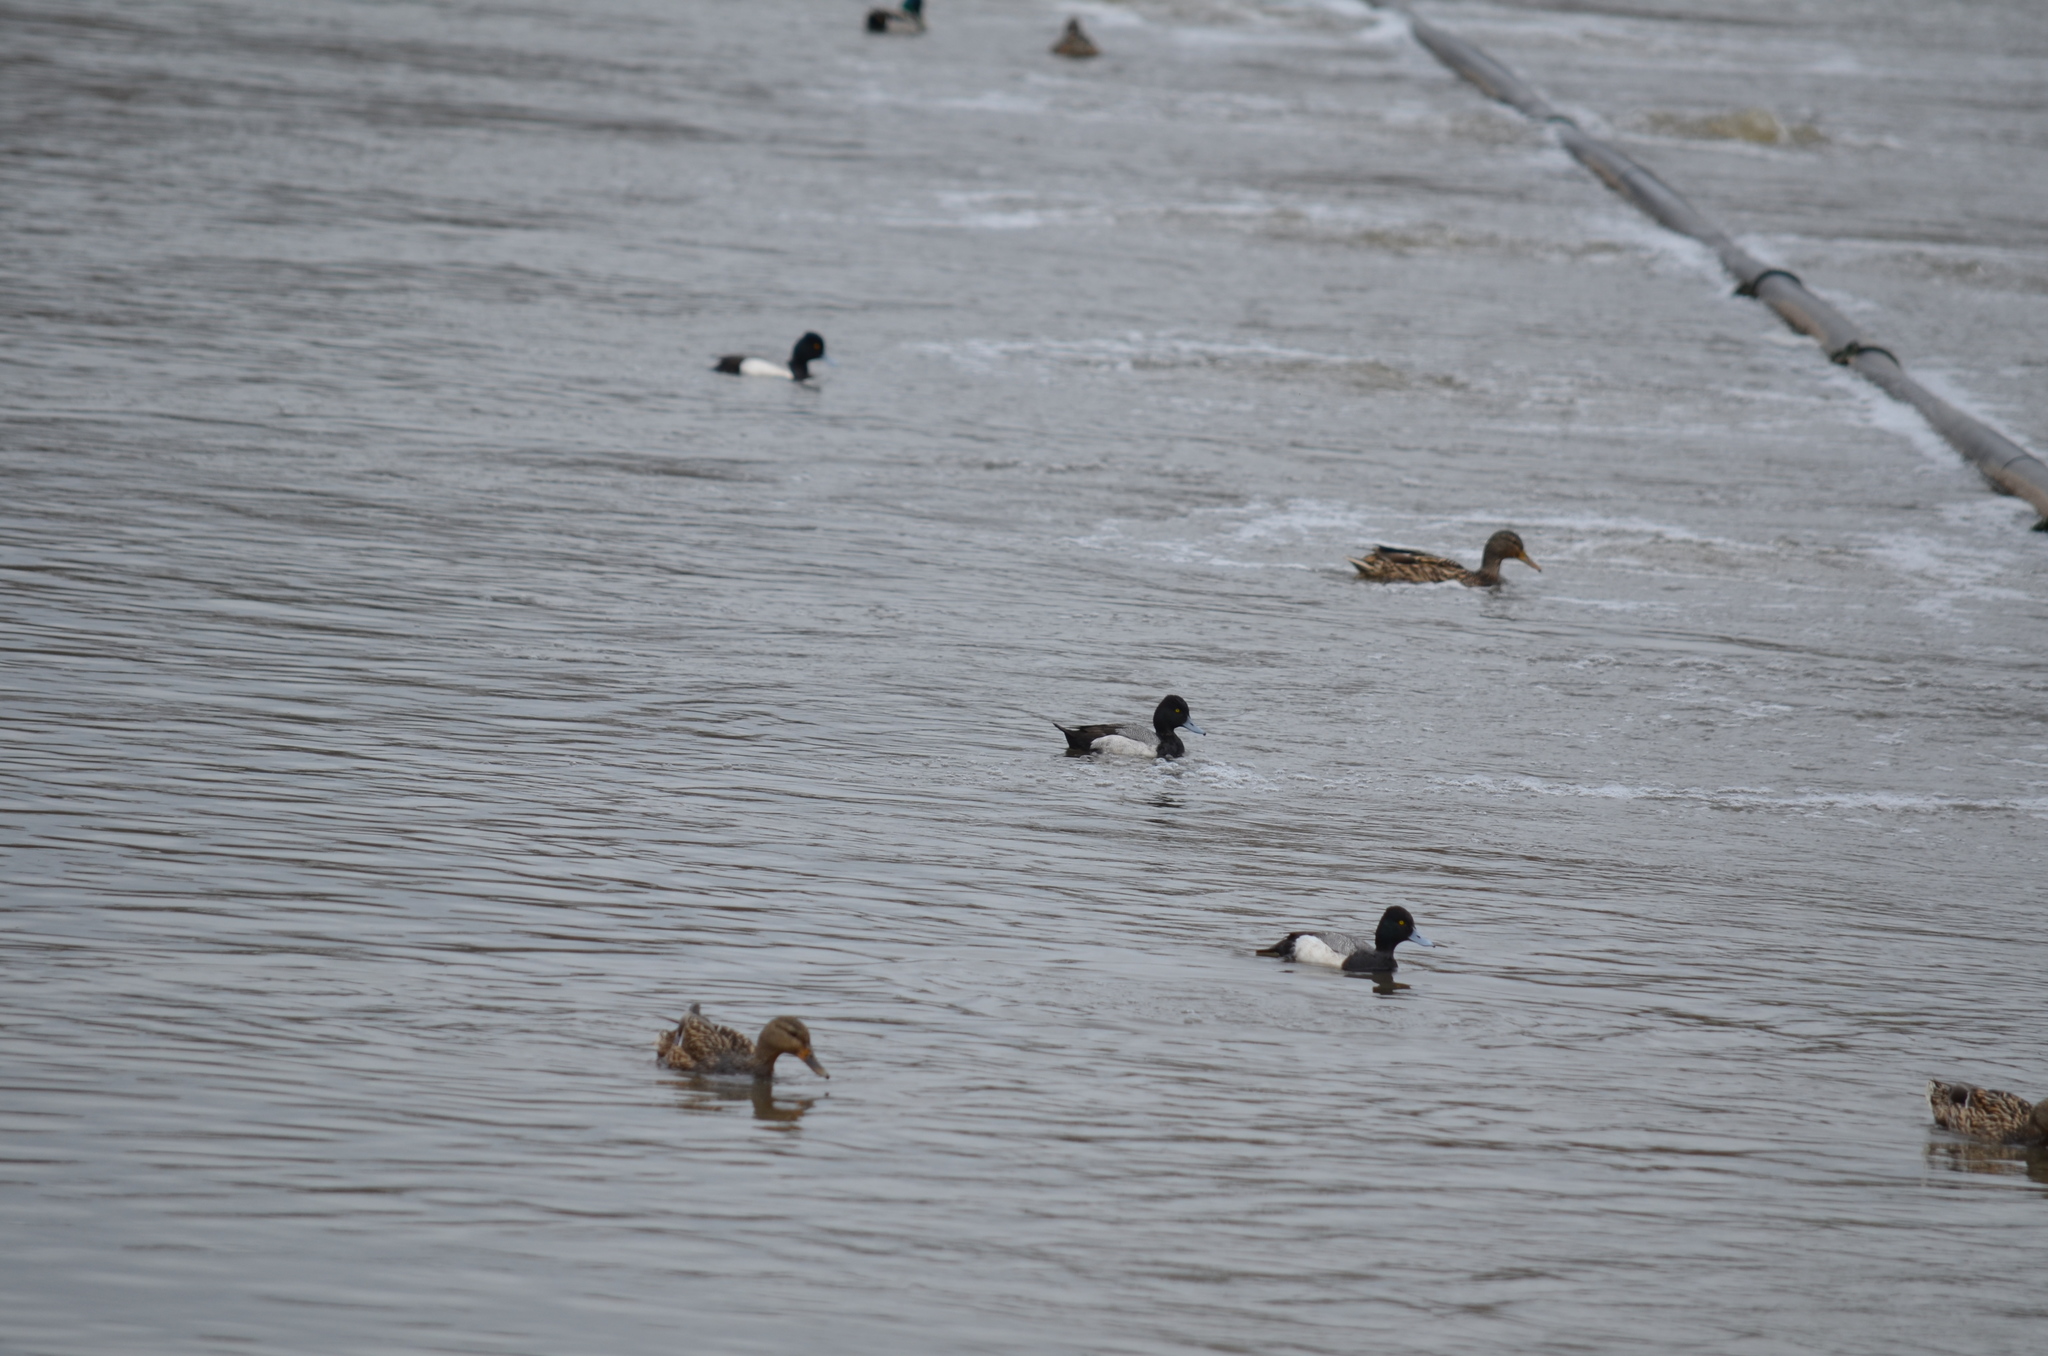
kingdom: Animalia
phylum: Chordata
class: Aves
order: Anseriformes
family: Anatidae
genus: Aythya
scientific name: Aythya affinis
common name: Lesser scaup
